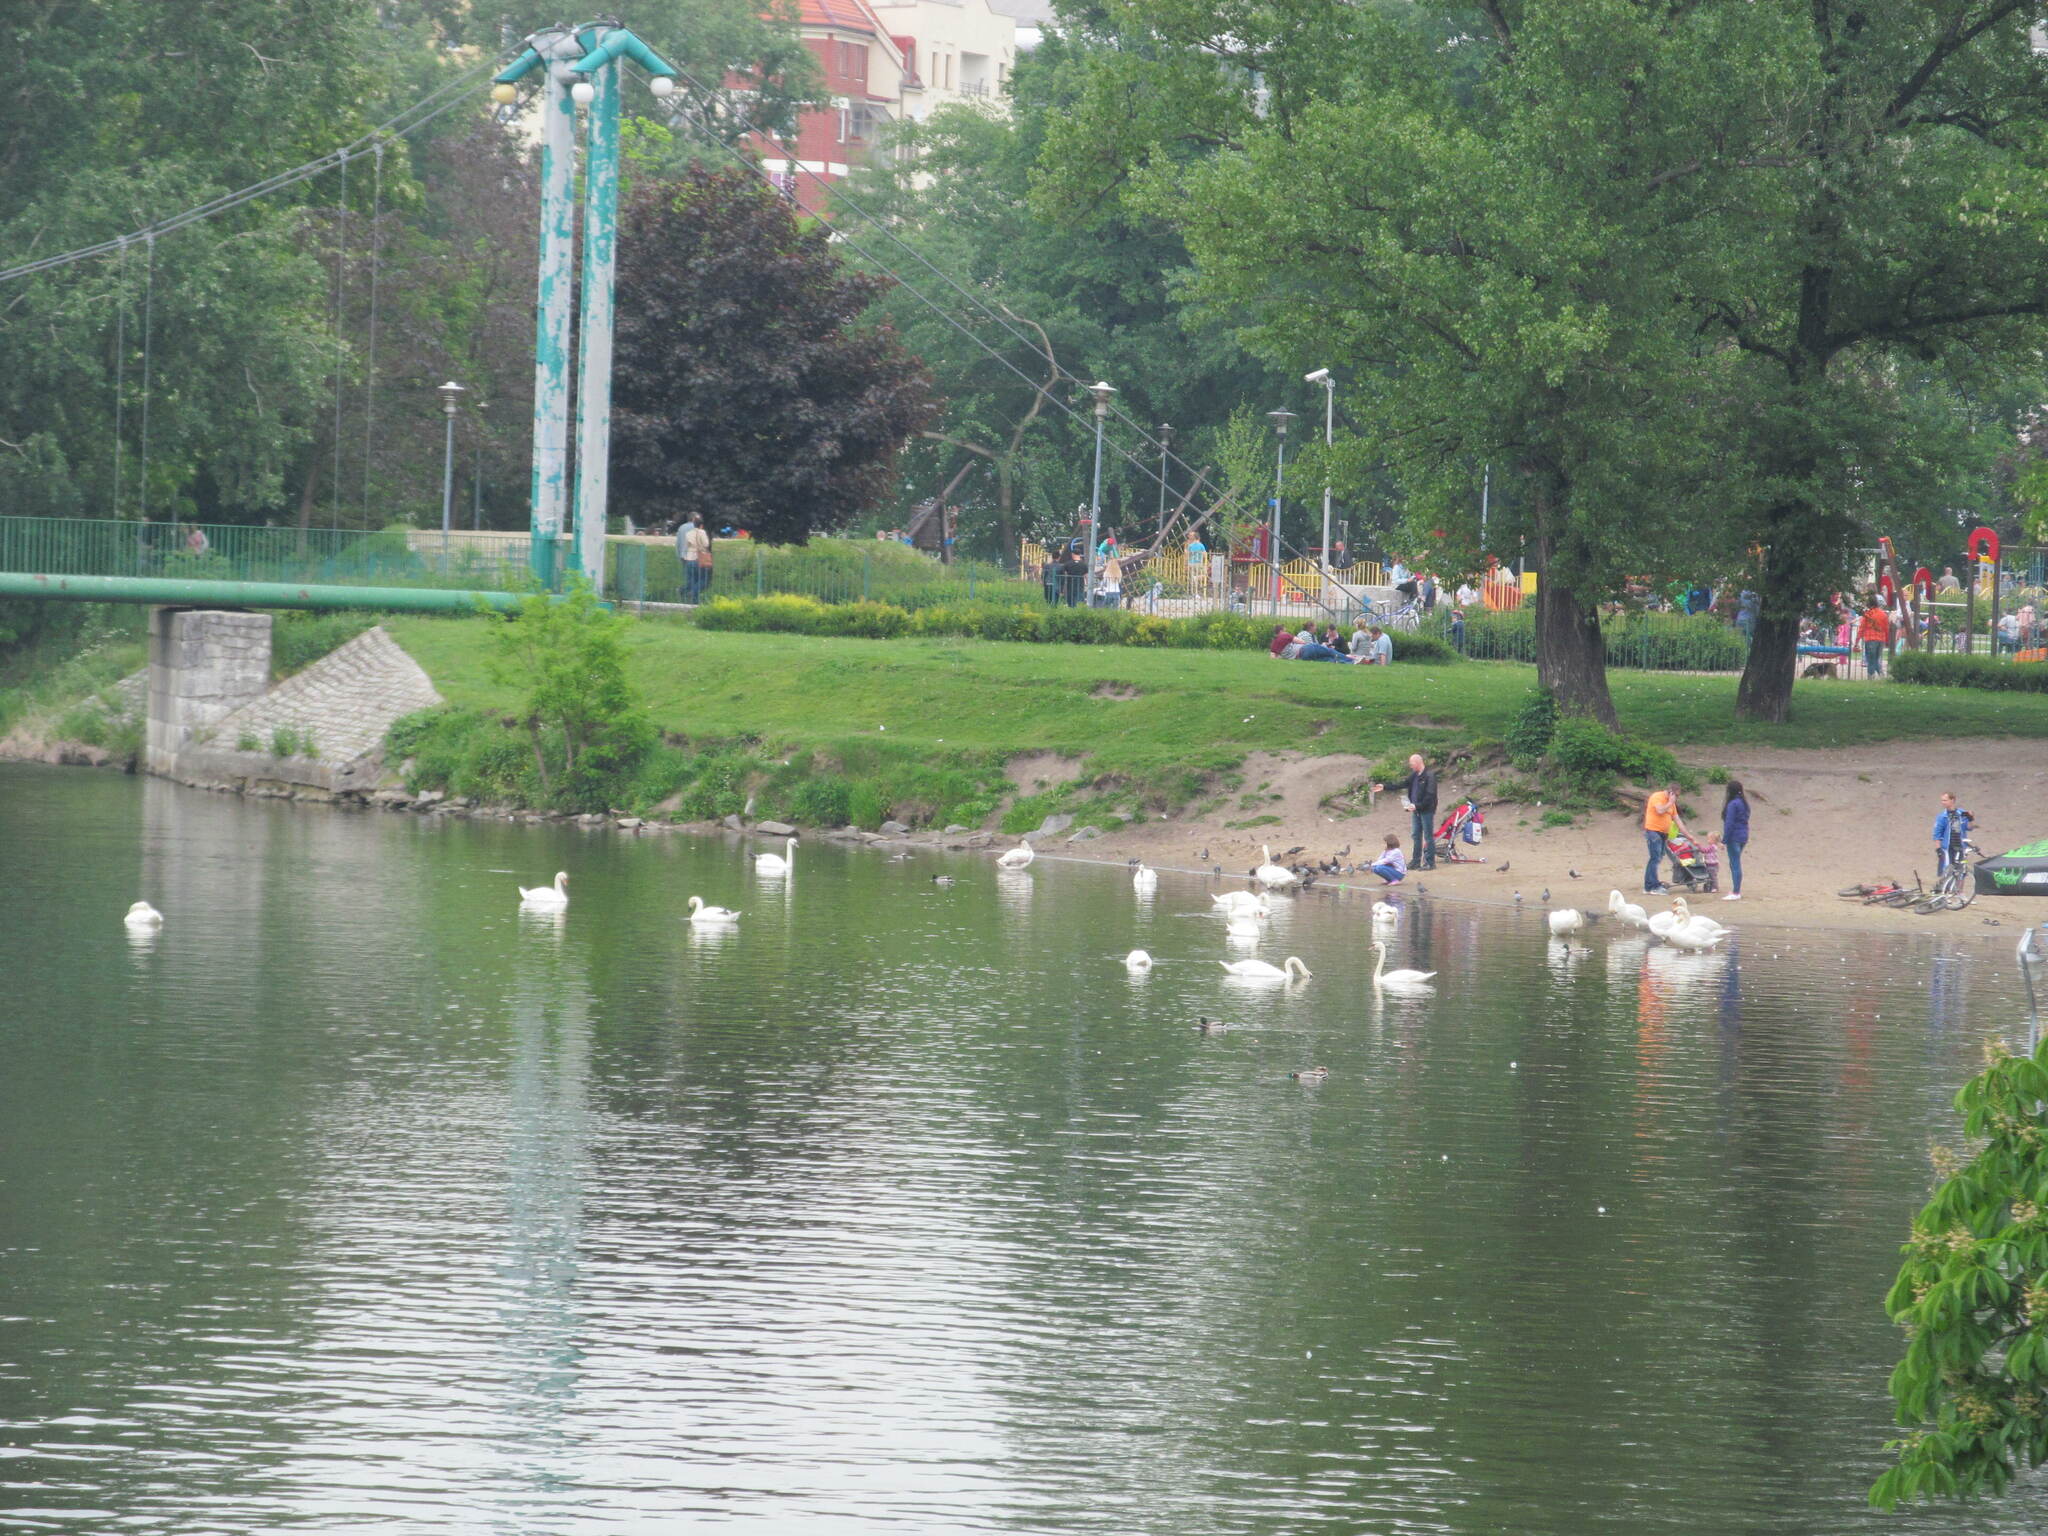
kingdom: Animalia
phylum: Chordata
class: Aves
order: Anseriformes
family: Anatidae
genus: Cygnus
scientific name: Cygnus olor
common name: Mute swan
